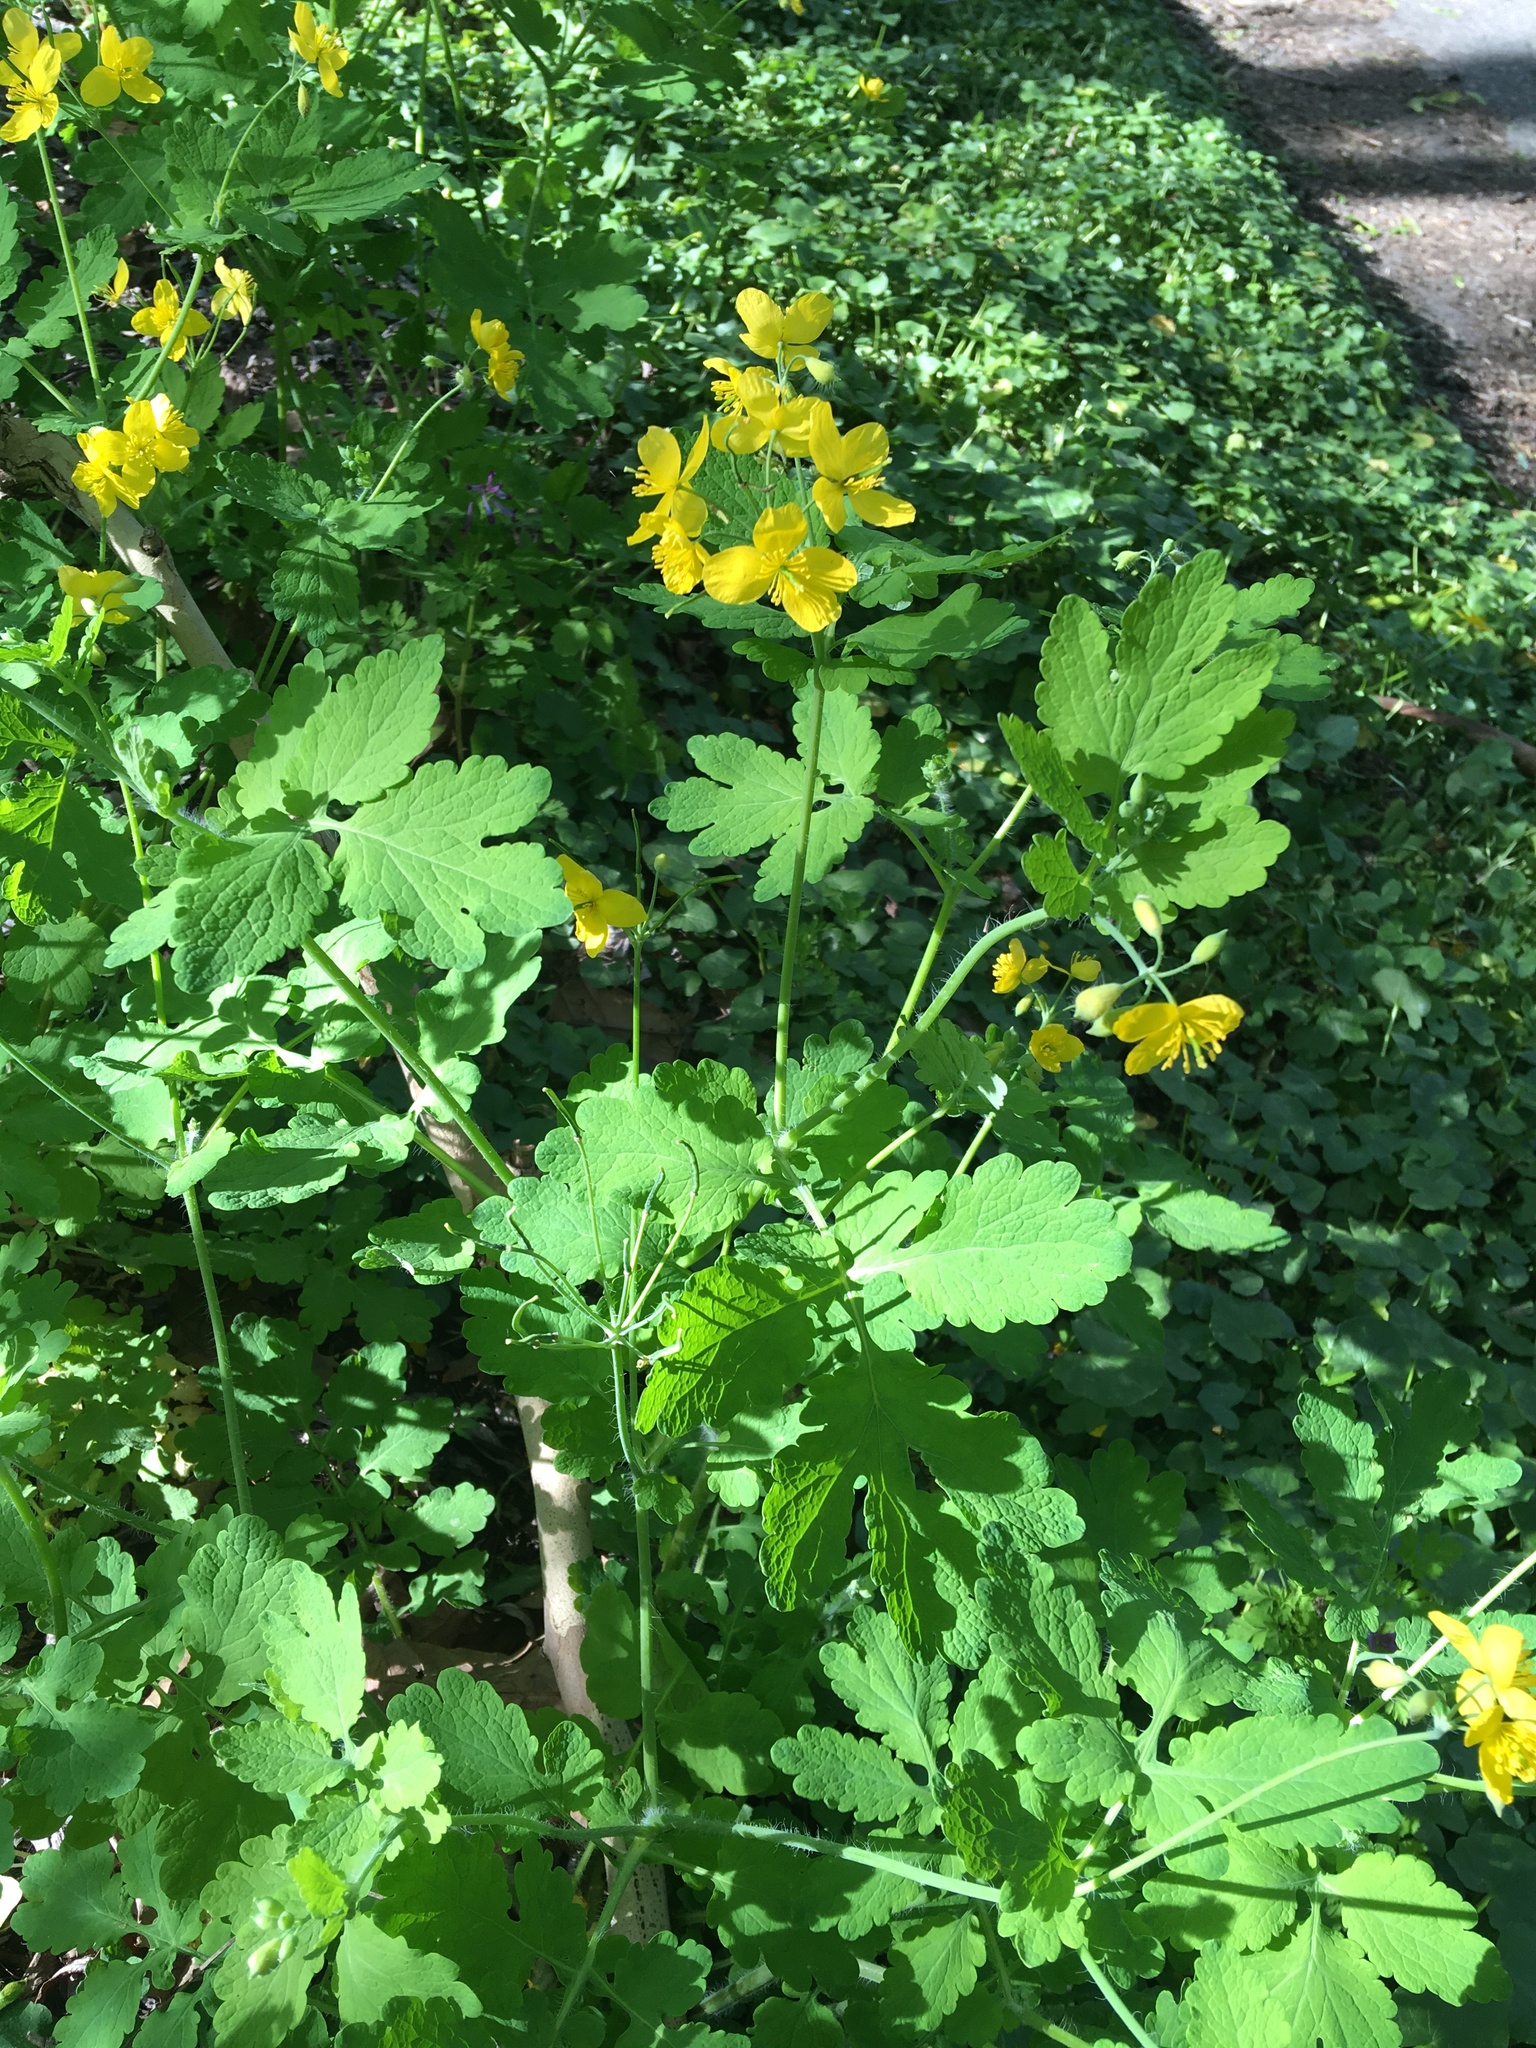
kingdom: Plantae
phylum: Tracheophyta
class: Magnoliopsida
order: Ranunculales
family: Papaveraceae
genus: Chelidonium
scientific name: Chelidonium majus
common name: Greater celandine
